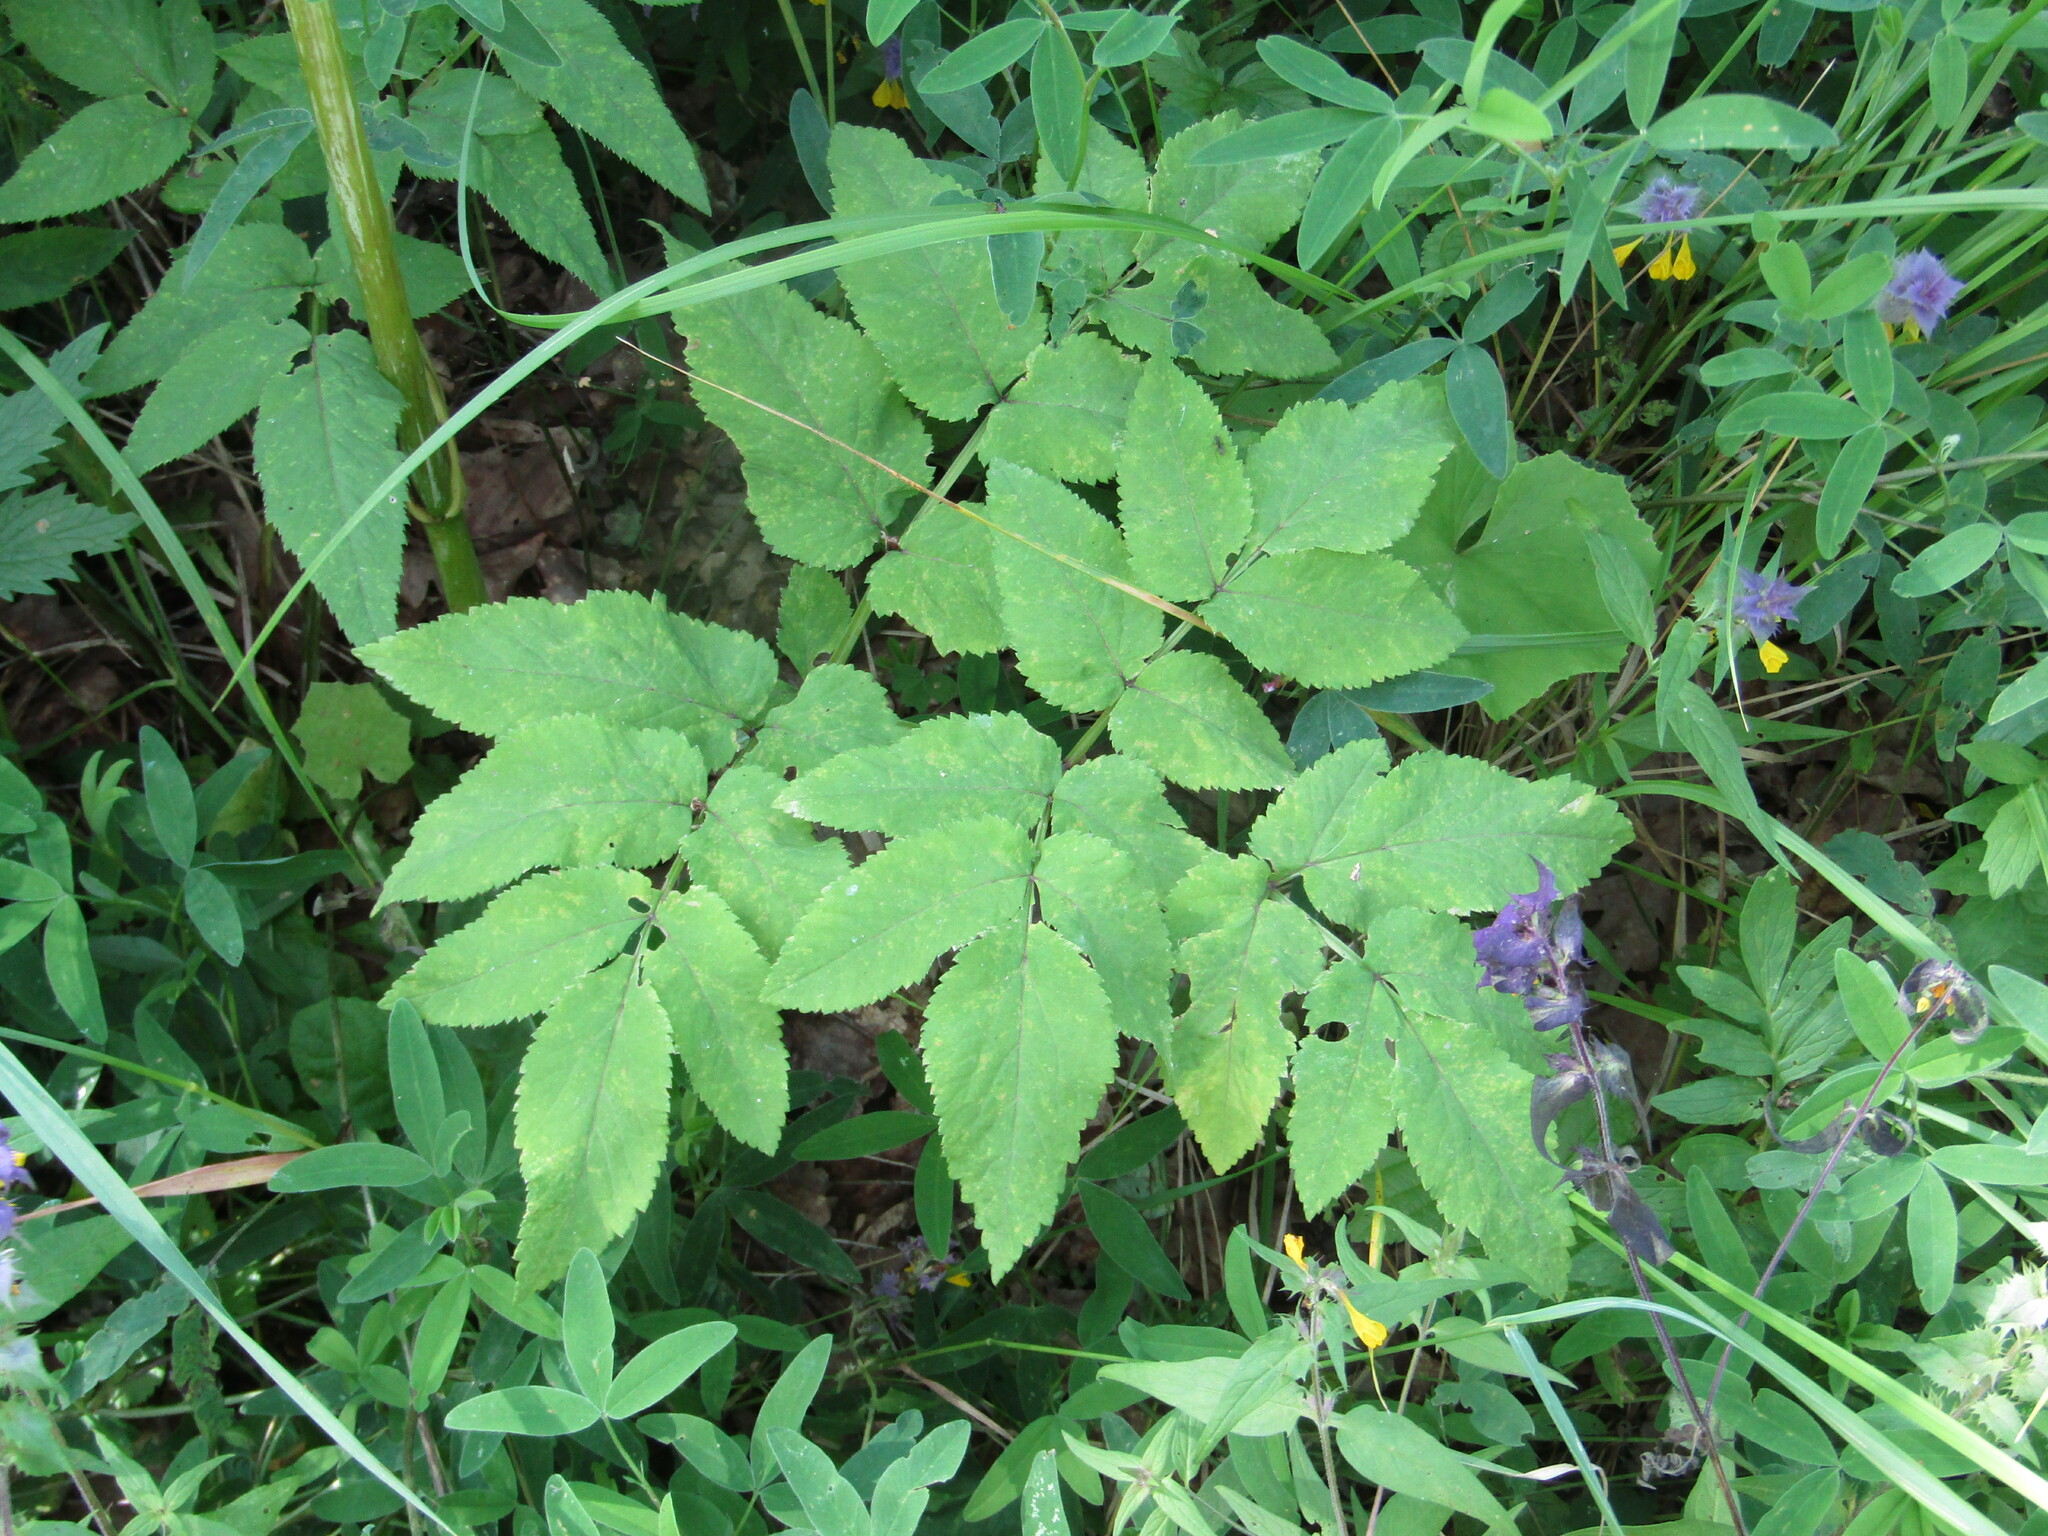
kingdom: Plantae
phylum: Tracheophyta
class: Magnoliopsida
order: Apiales
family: Apiaceae
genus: Angelica
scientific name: Angelica sylvestris
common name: Wild angelica
